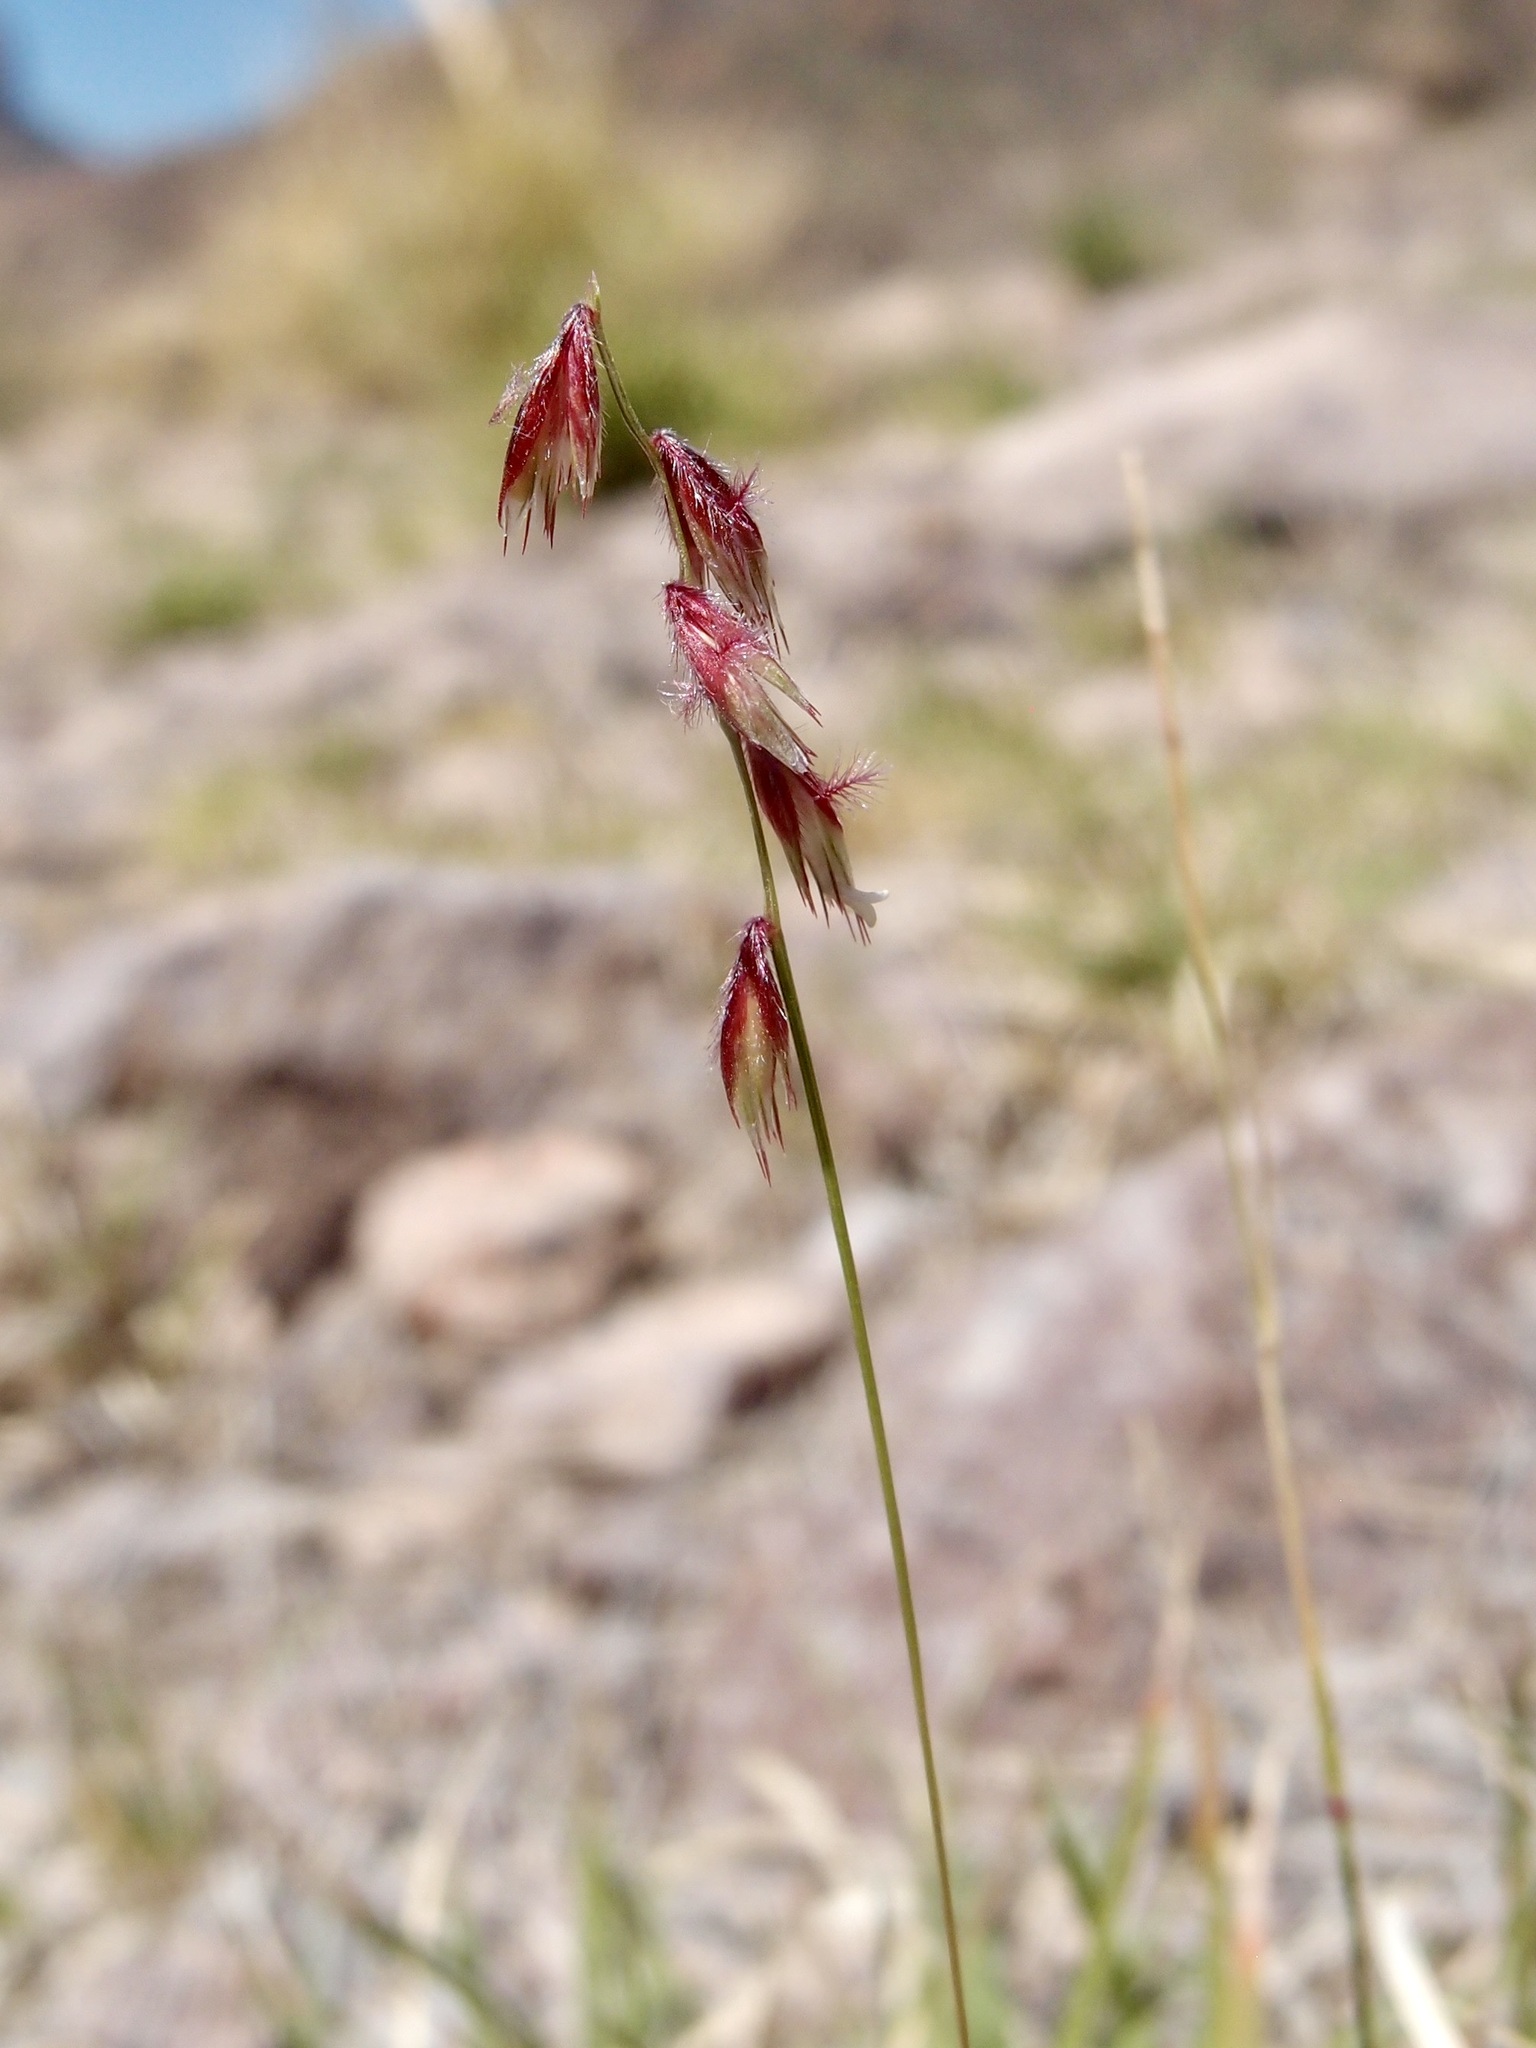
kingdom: Plantae
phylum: Tracheophyta
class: Liliopsida
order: Poales
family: Poaceae
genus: Bouteloua
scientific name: Bouteloua diversispicula
